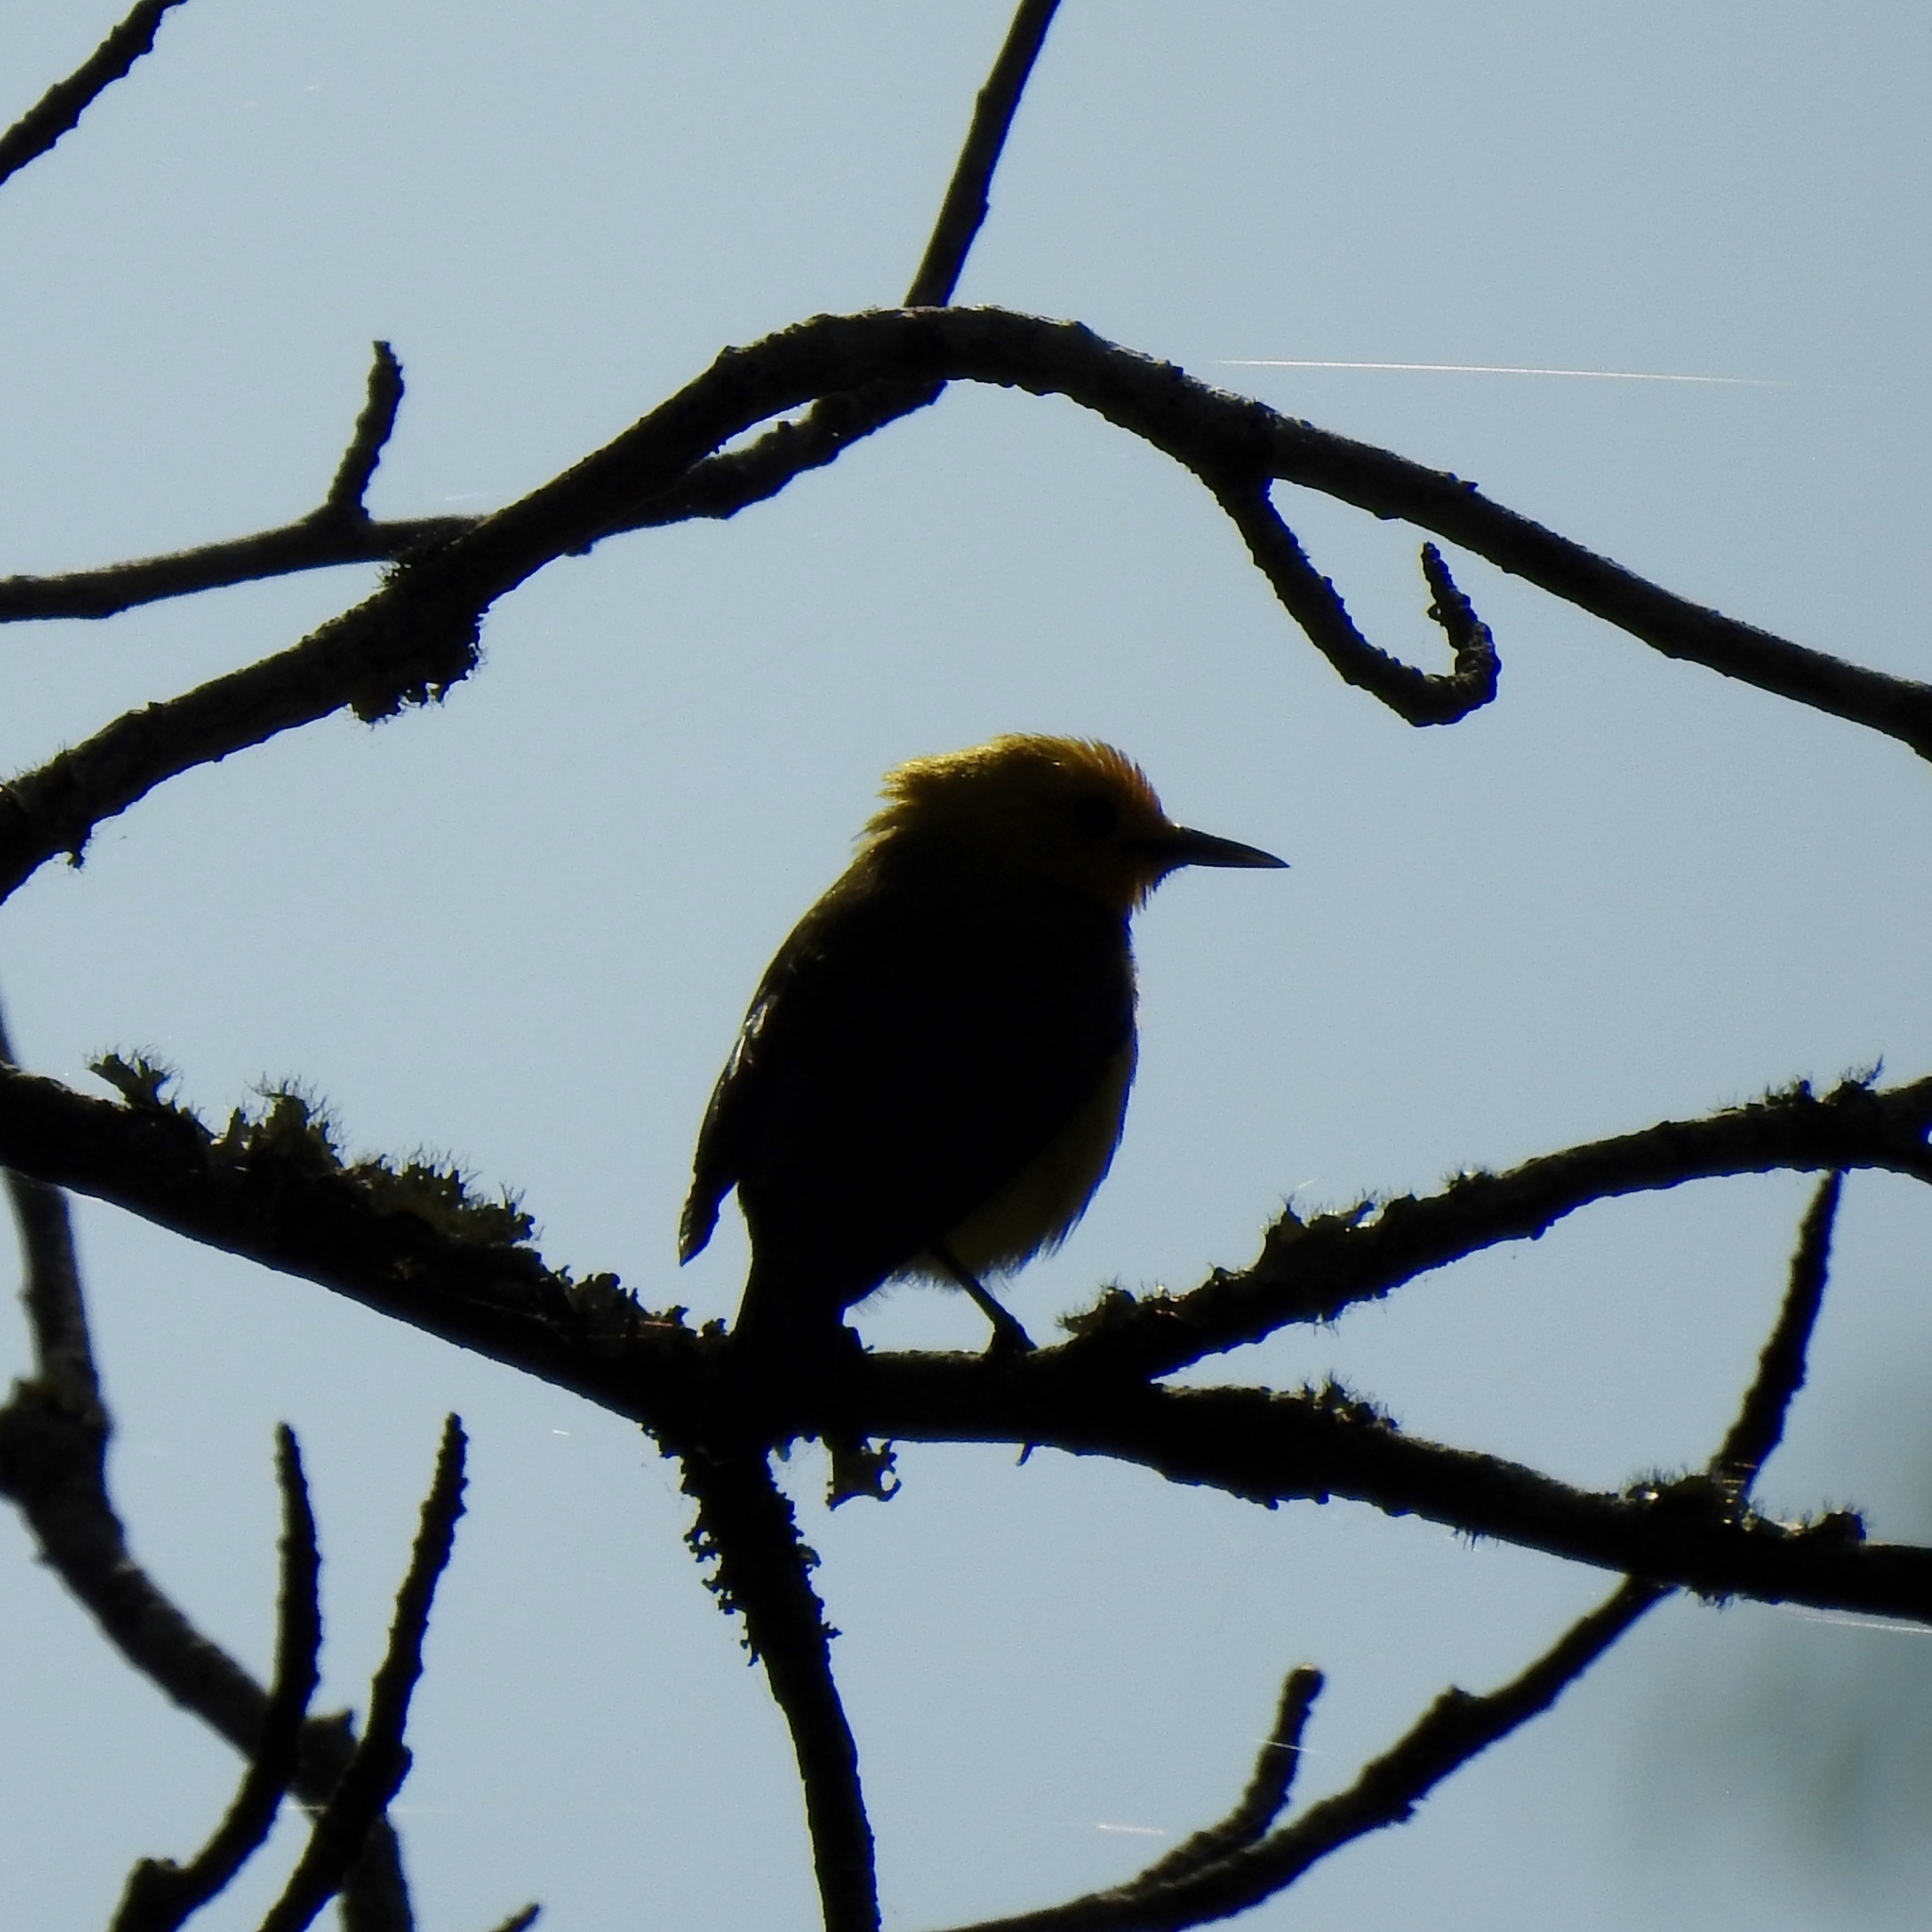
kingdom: Animalia
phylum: Chordata
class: Aves
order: Passeriformes
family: Parulidae
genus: Protonotaria
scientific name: Protonotaria citrea
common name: Prothonotary warbler
